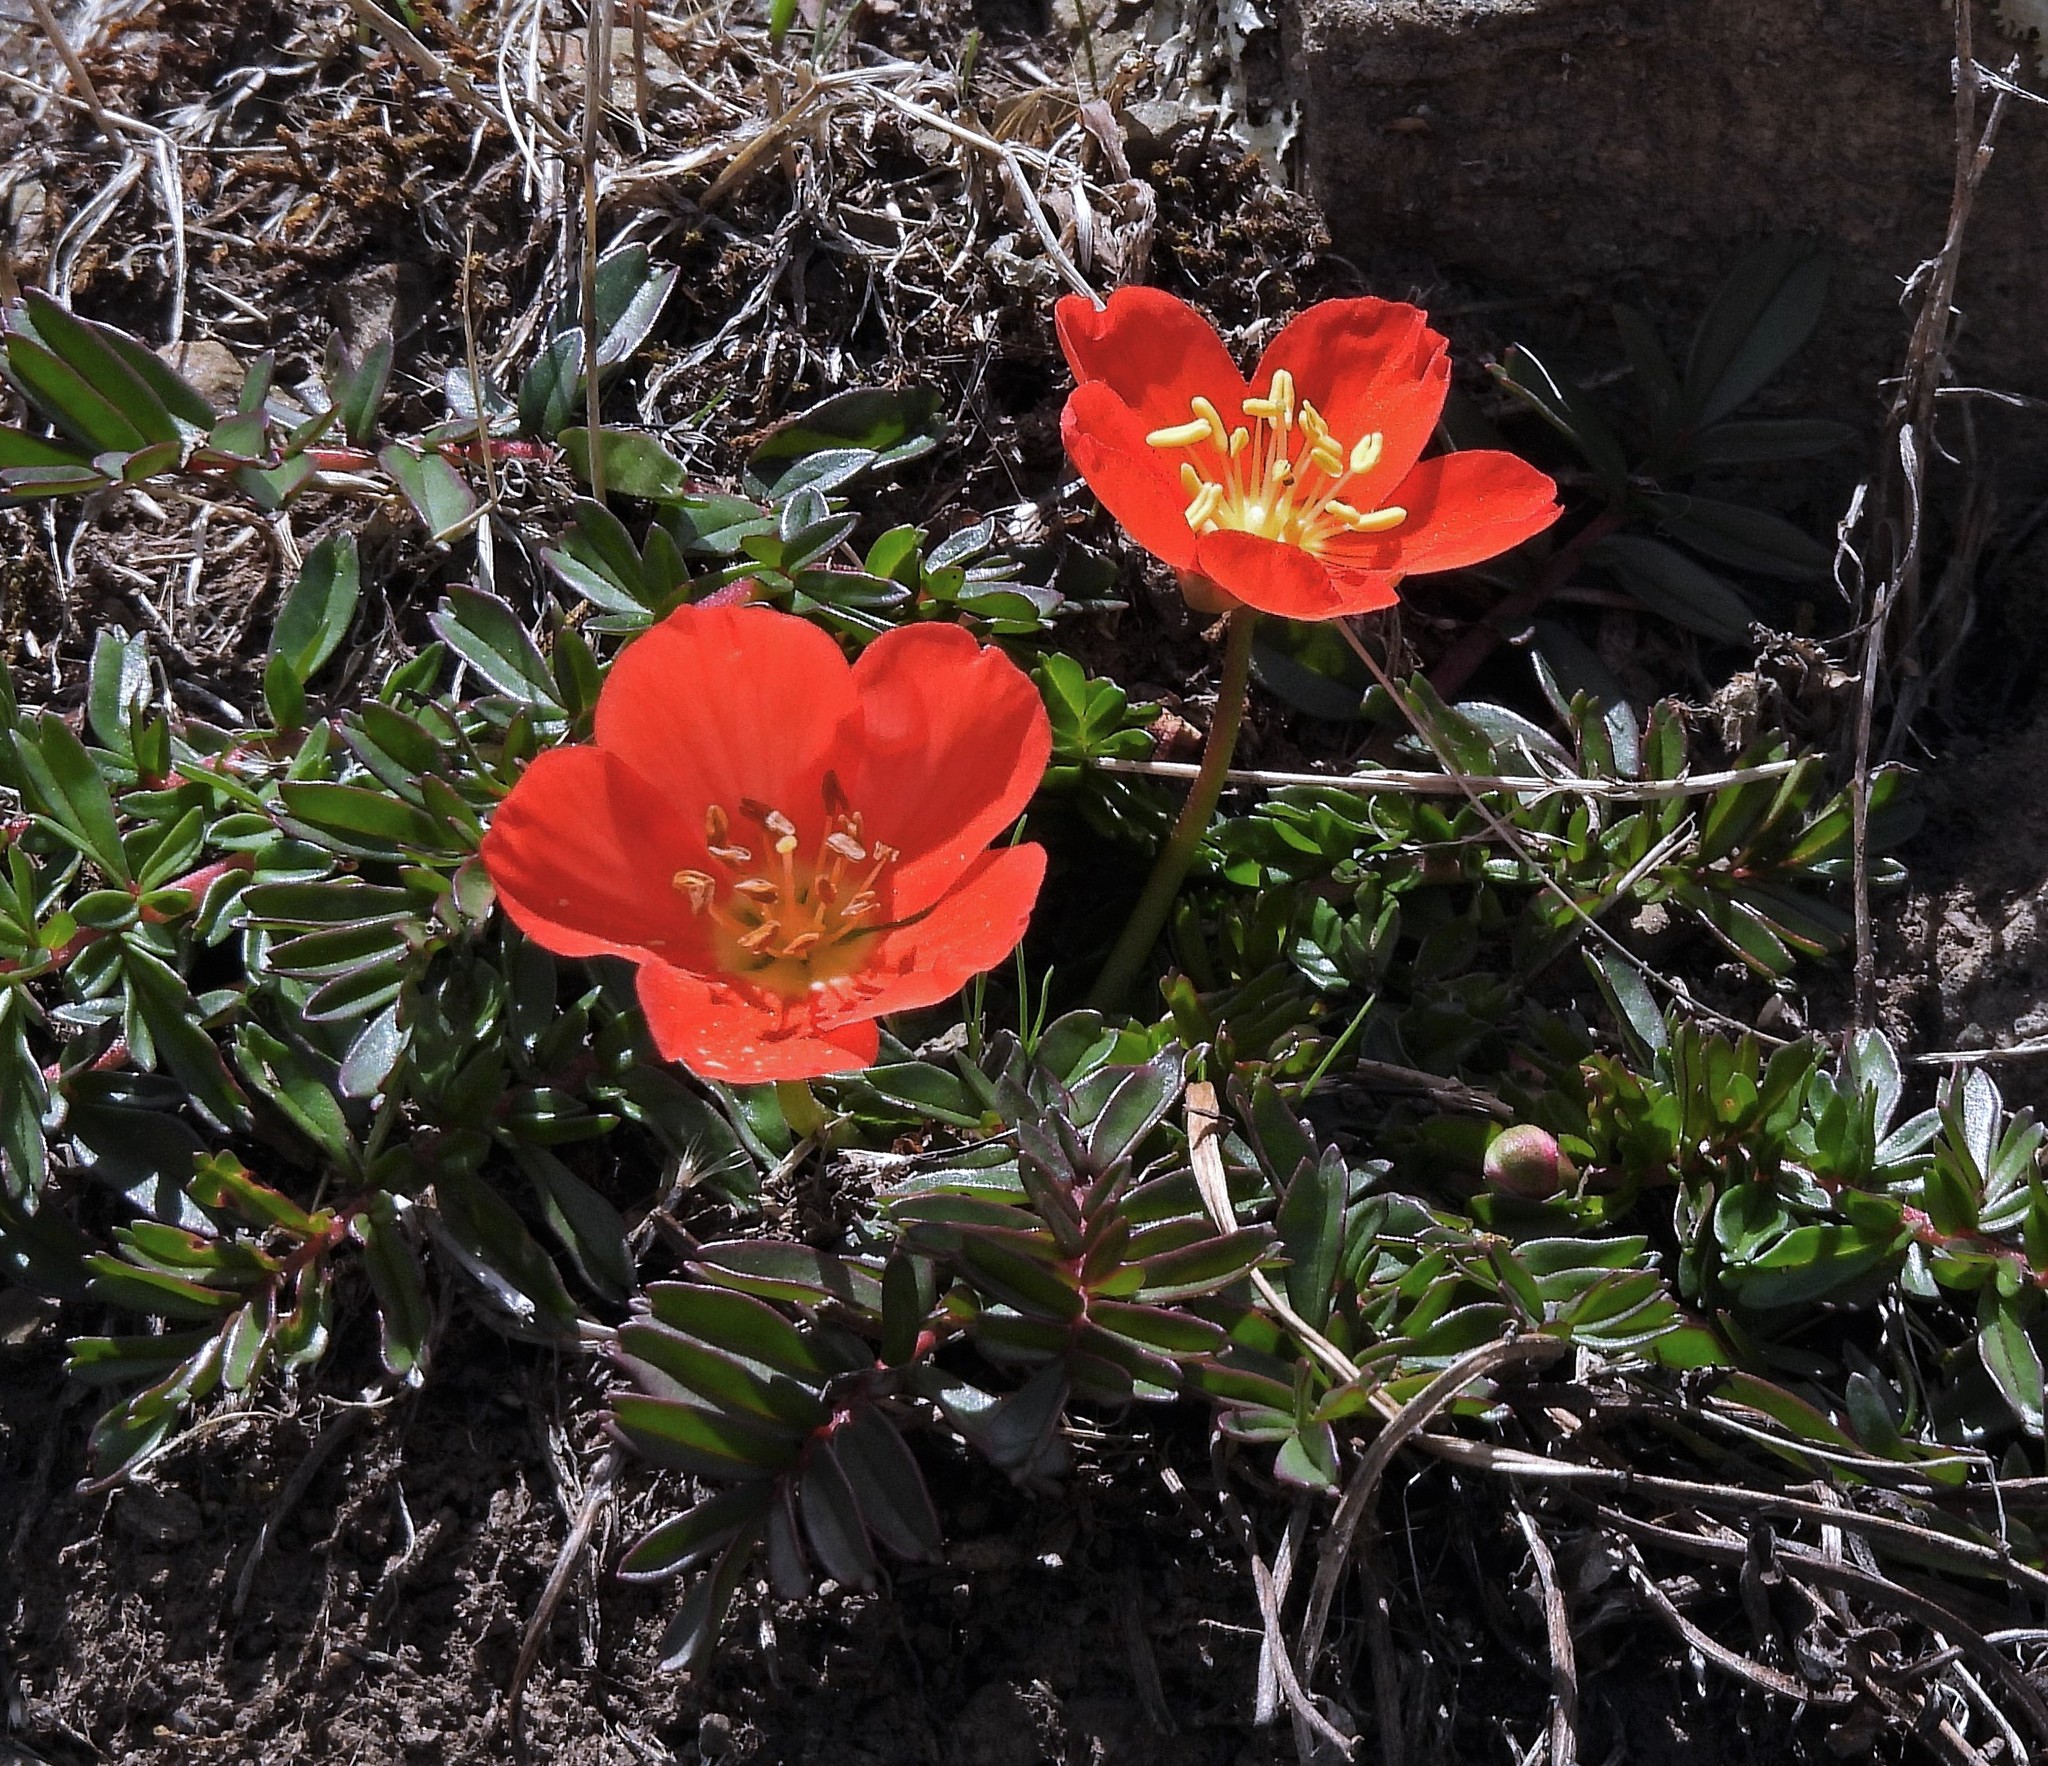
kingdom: Plantae
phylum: Tracheophyta
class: Magnoliopsida
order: Geraniales
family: Hypseocharitaceae
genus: Hypseocharis
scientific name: Hypseocharis pimpinellifolia
